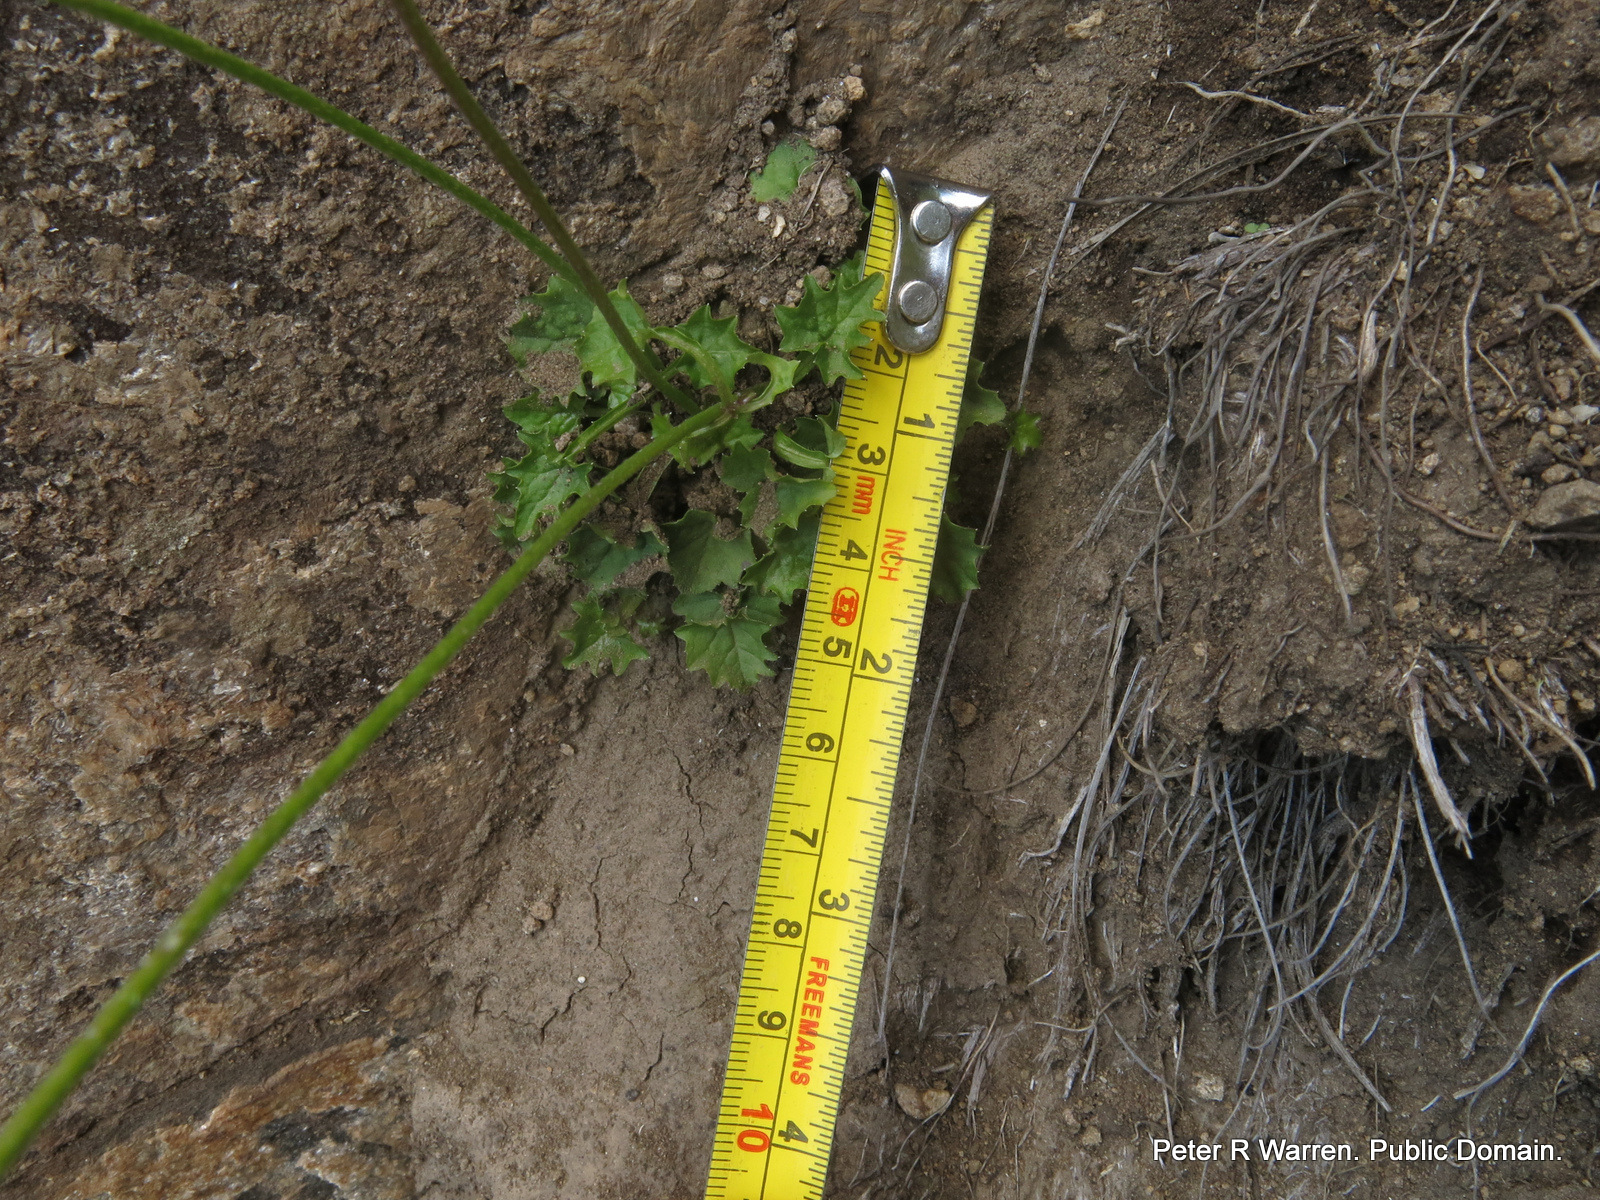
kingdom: Plantae
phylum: Tracheophyta
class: Magnoliopsida
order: Asterales
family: Campanulaceae
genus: Lobelia
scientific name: Lobelia preslii
